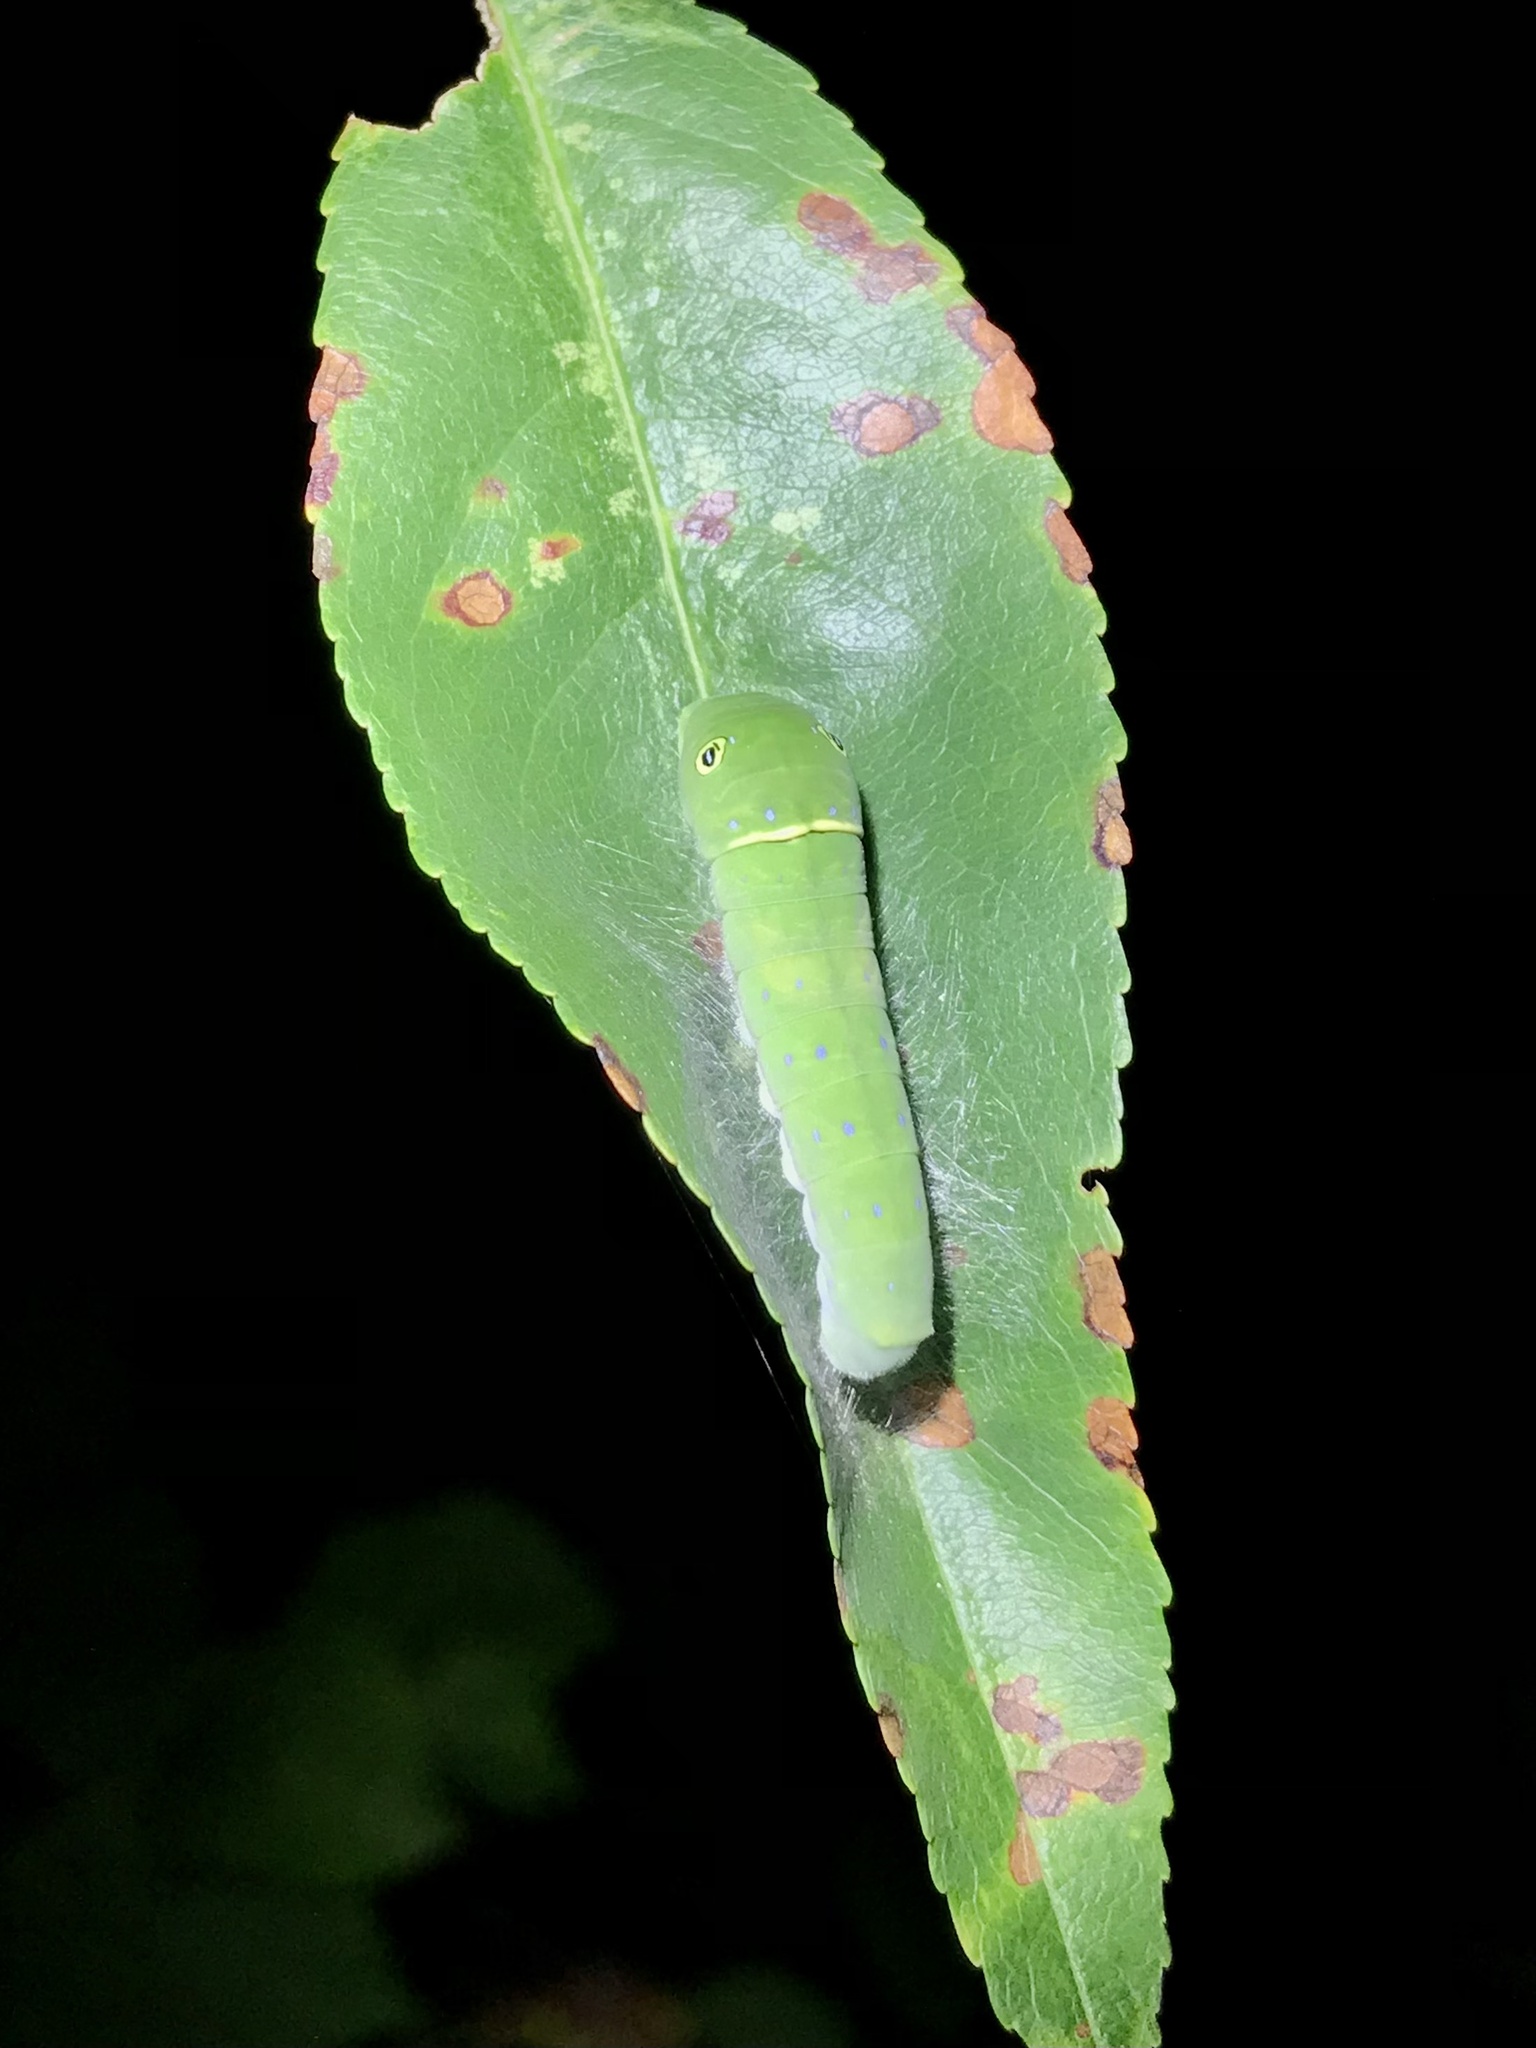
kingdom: Animalia
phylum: Arthropoda
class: Insecta
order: Lepidoptera
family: Papilionidae
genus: Papilio
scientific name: Papilio glaucus
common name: Tiger swallowtail
